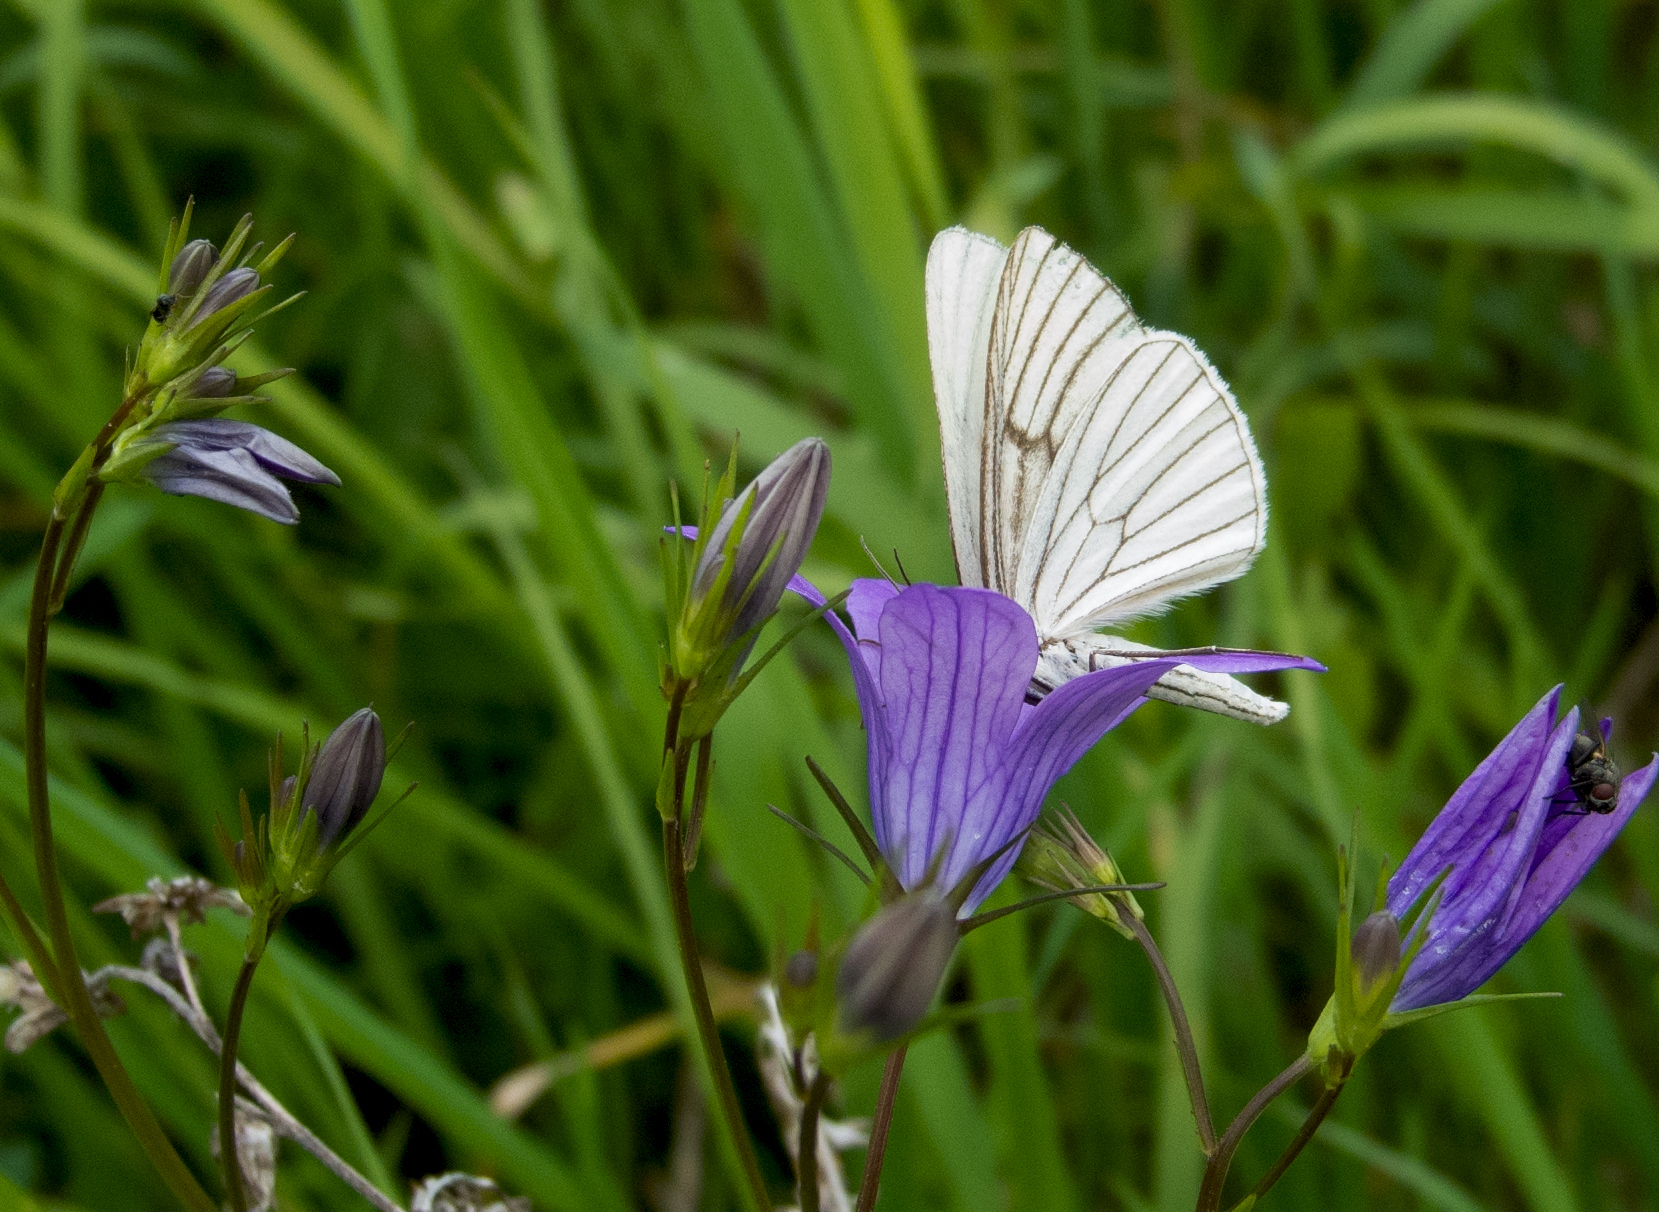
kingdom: Animalia
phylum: Arthropoda
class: Insecta
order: Lepidoptera
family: Geometridae
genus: Siona
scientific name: Siona lineata
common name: Black-veined moth
